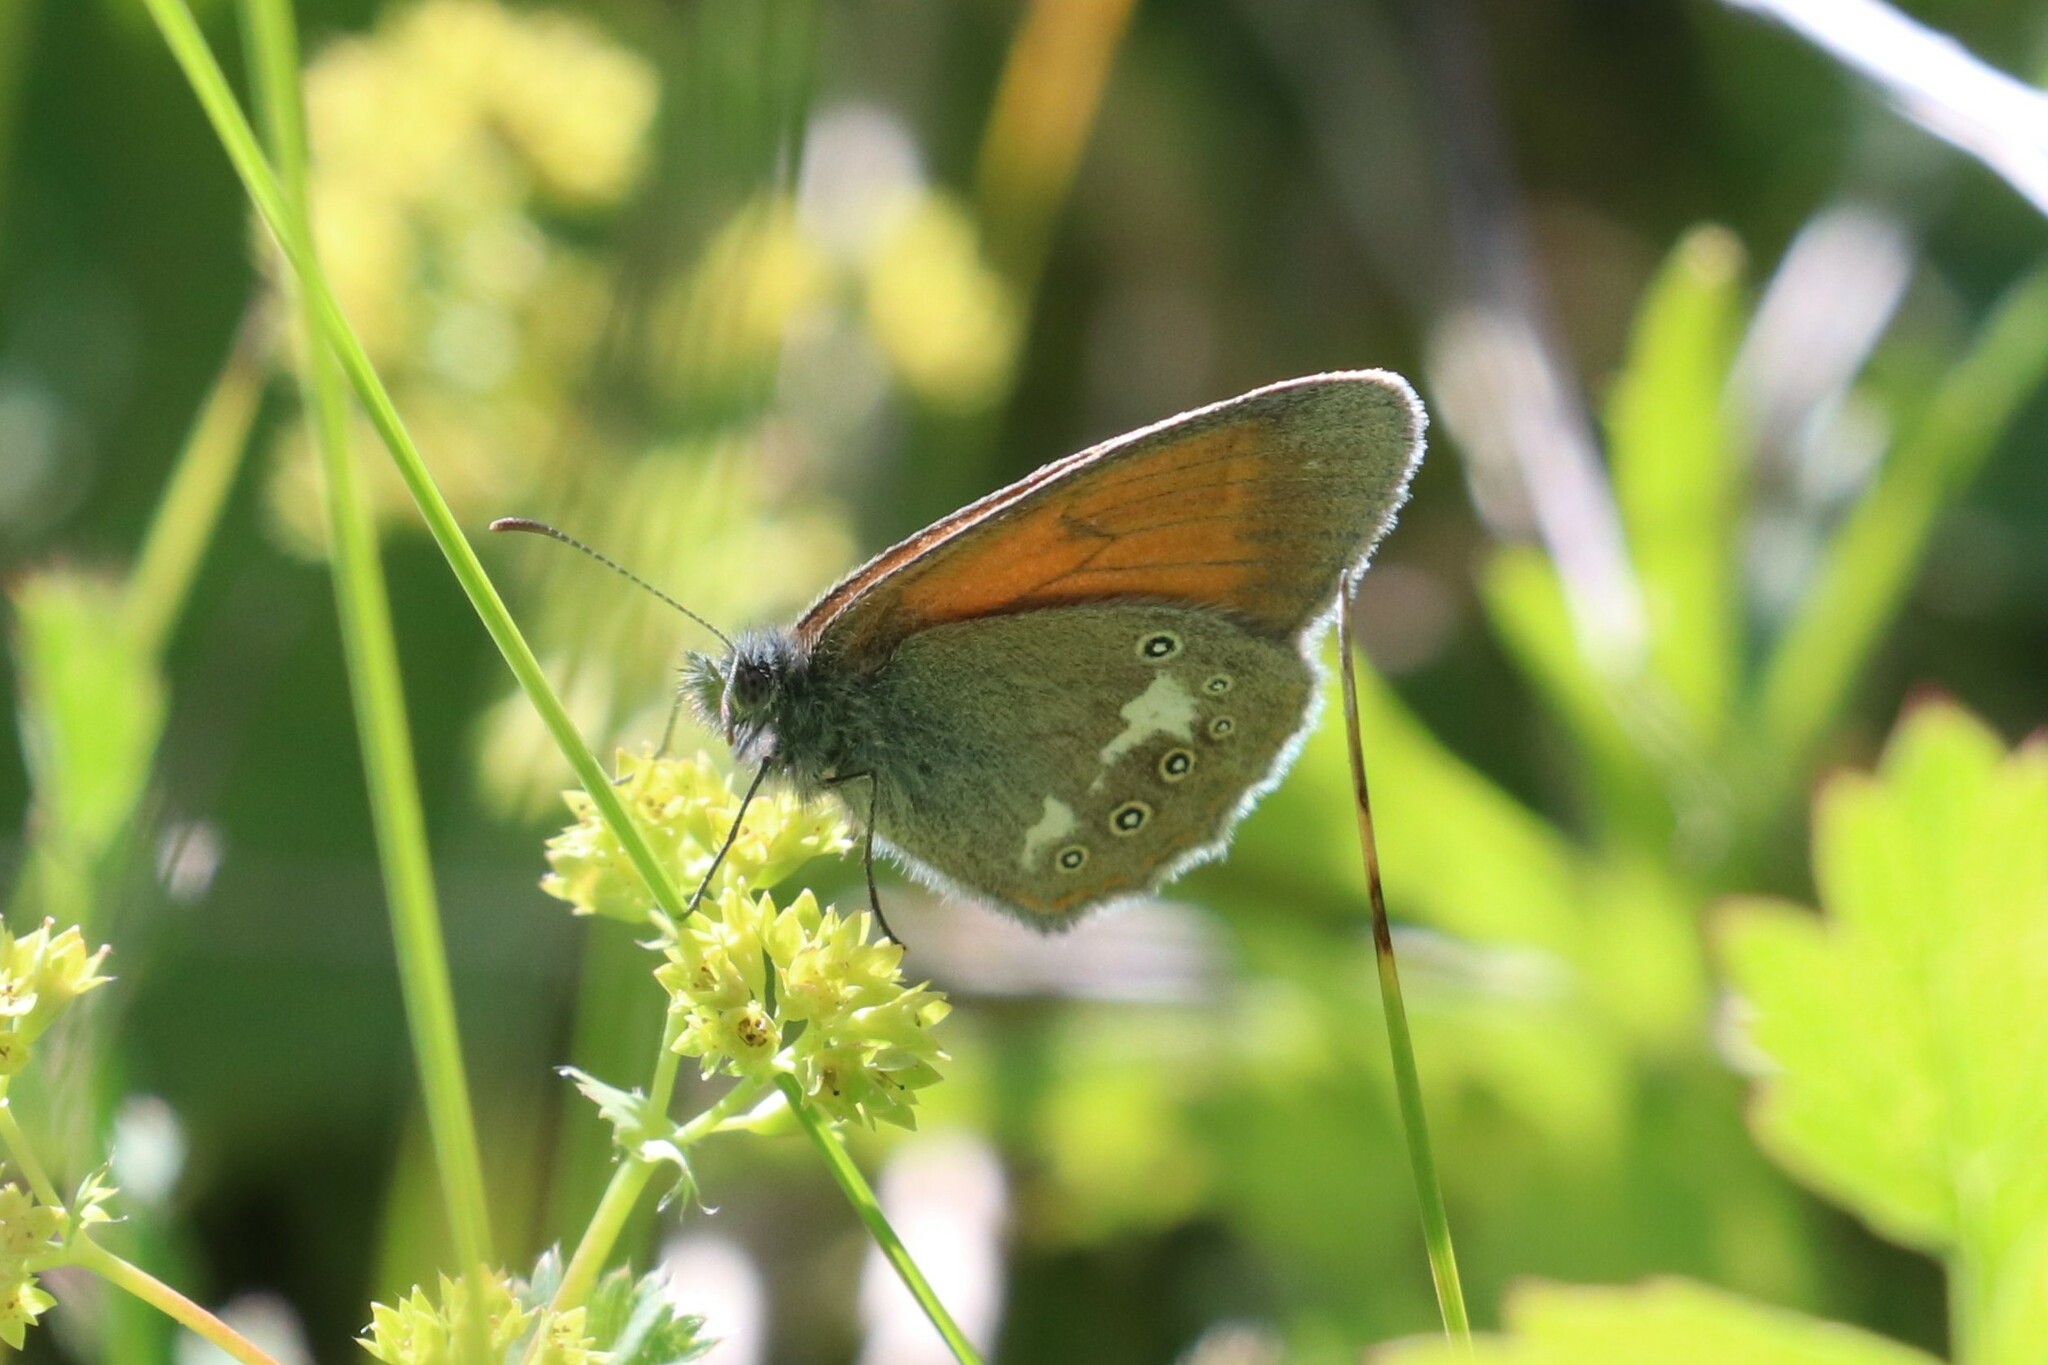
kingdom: Animalia
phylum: Arthropoda
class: Insecta
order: Lepidoptera
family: Nymphalidae
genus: Coenonympha
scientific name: Coenonympha iphis
